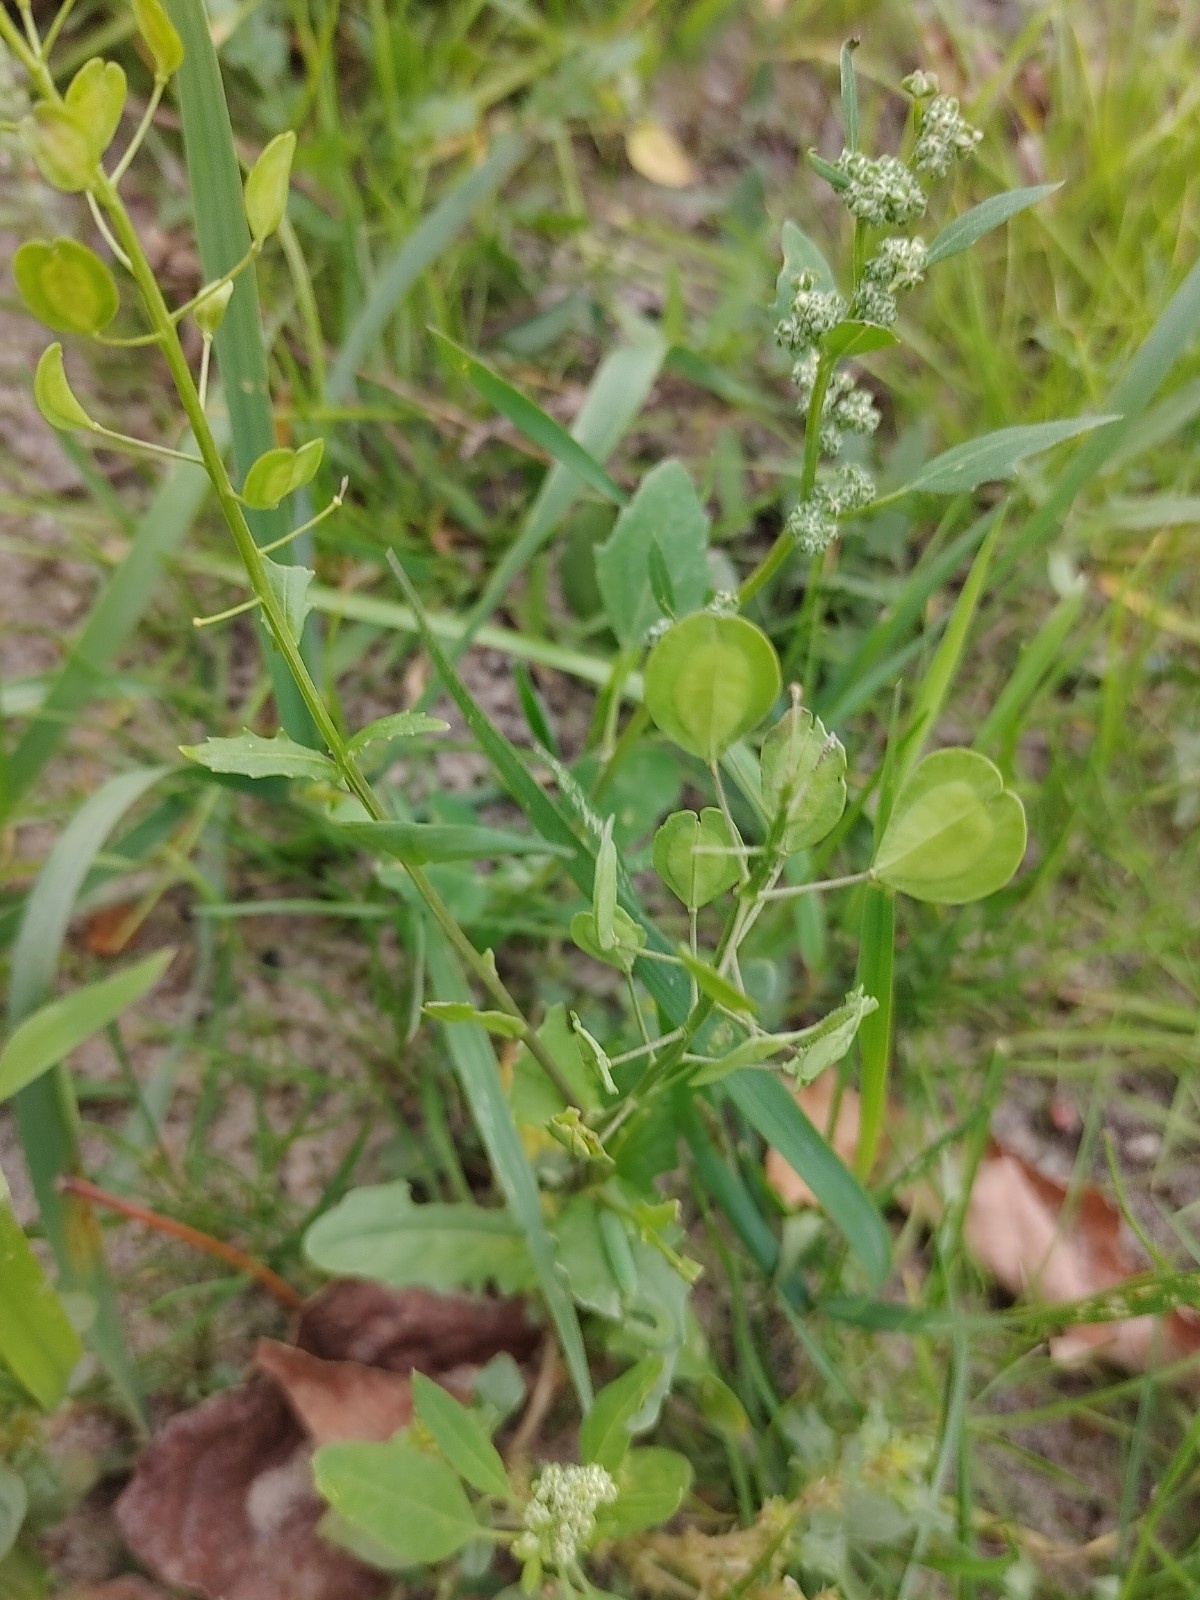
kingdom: Plantae
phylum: Tracheophyta
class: Magnoliopsida
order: Brassicales
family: Brassicaceae
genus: Thlaspi
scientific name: Thlaspi arvense
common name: Field pennycress
